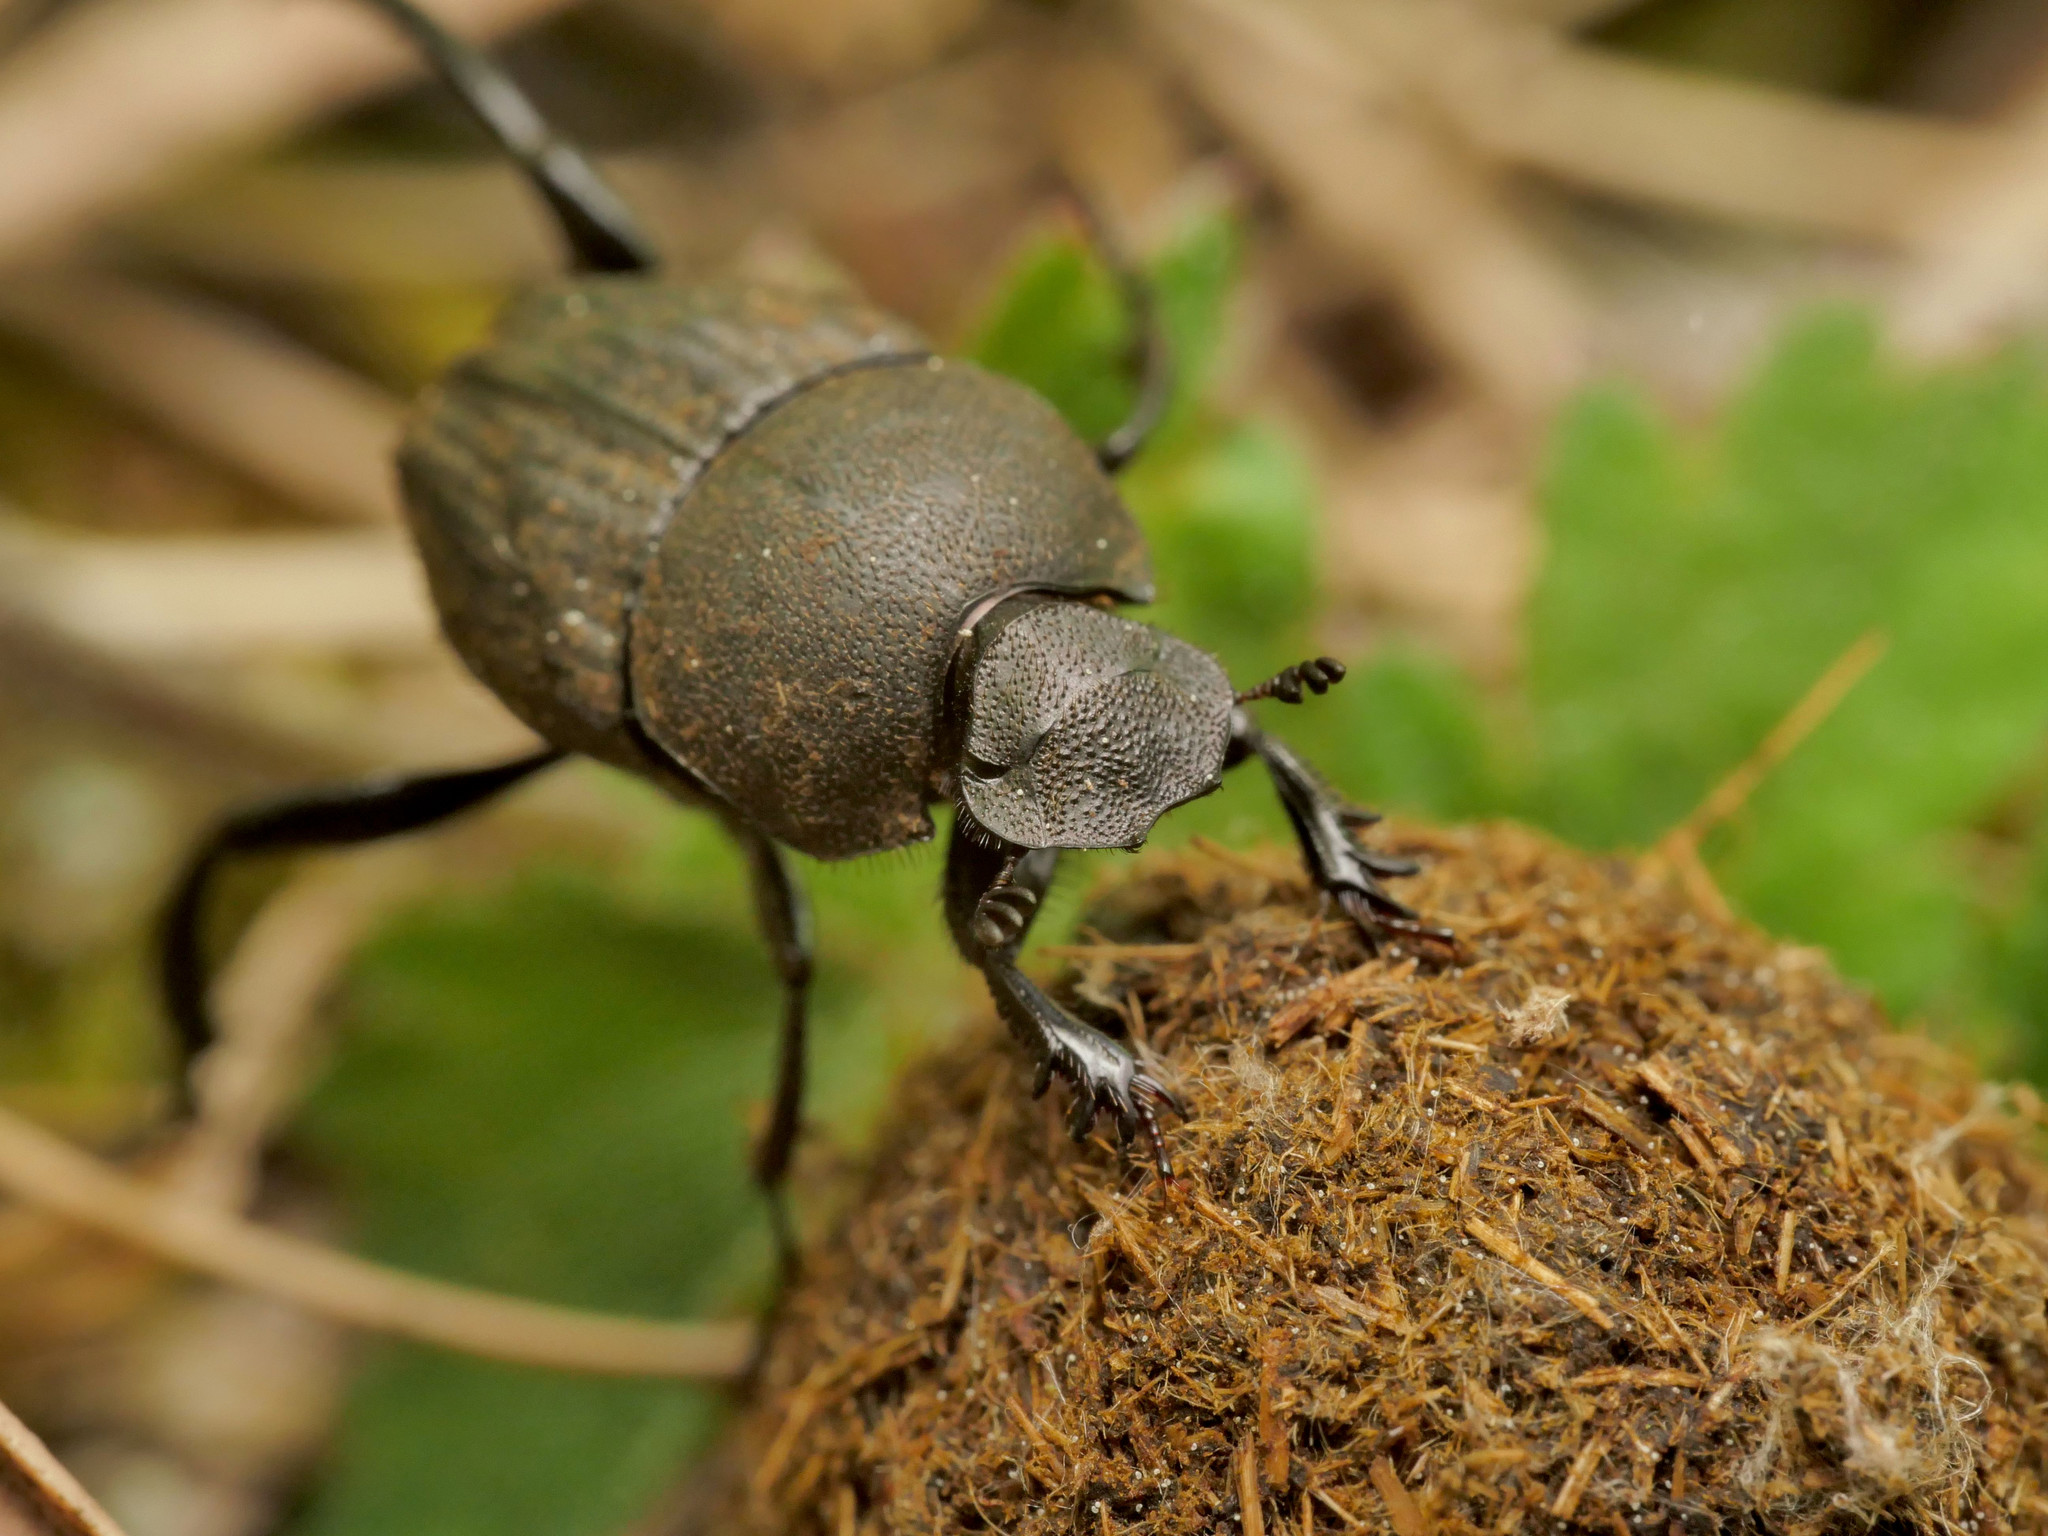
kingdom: Animalia
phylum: Arthropoda
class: Insecta
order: Coleoptera
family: Scarabaeidae
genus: Sisyphus
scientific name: Sisyphus schaefferi
